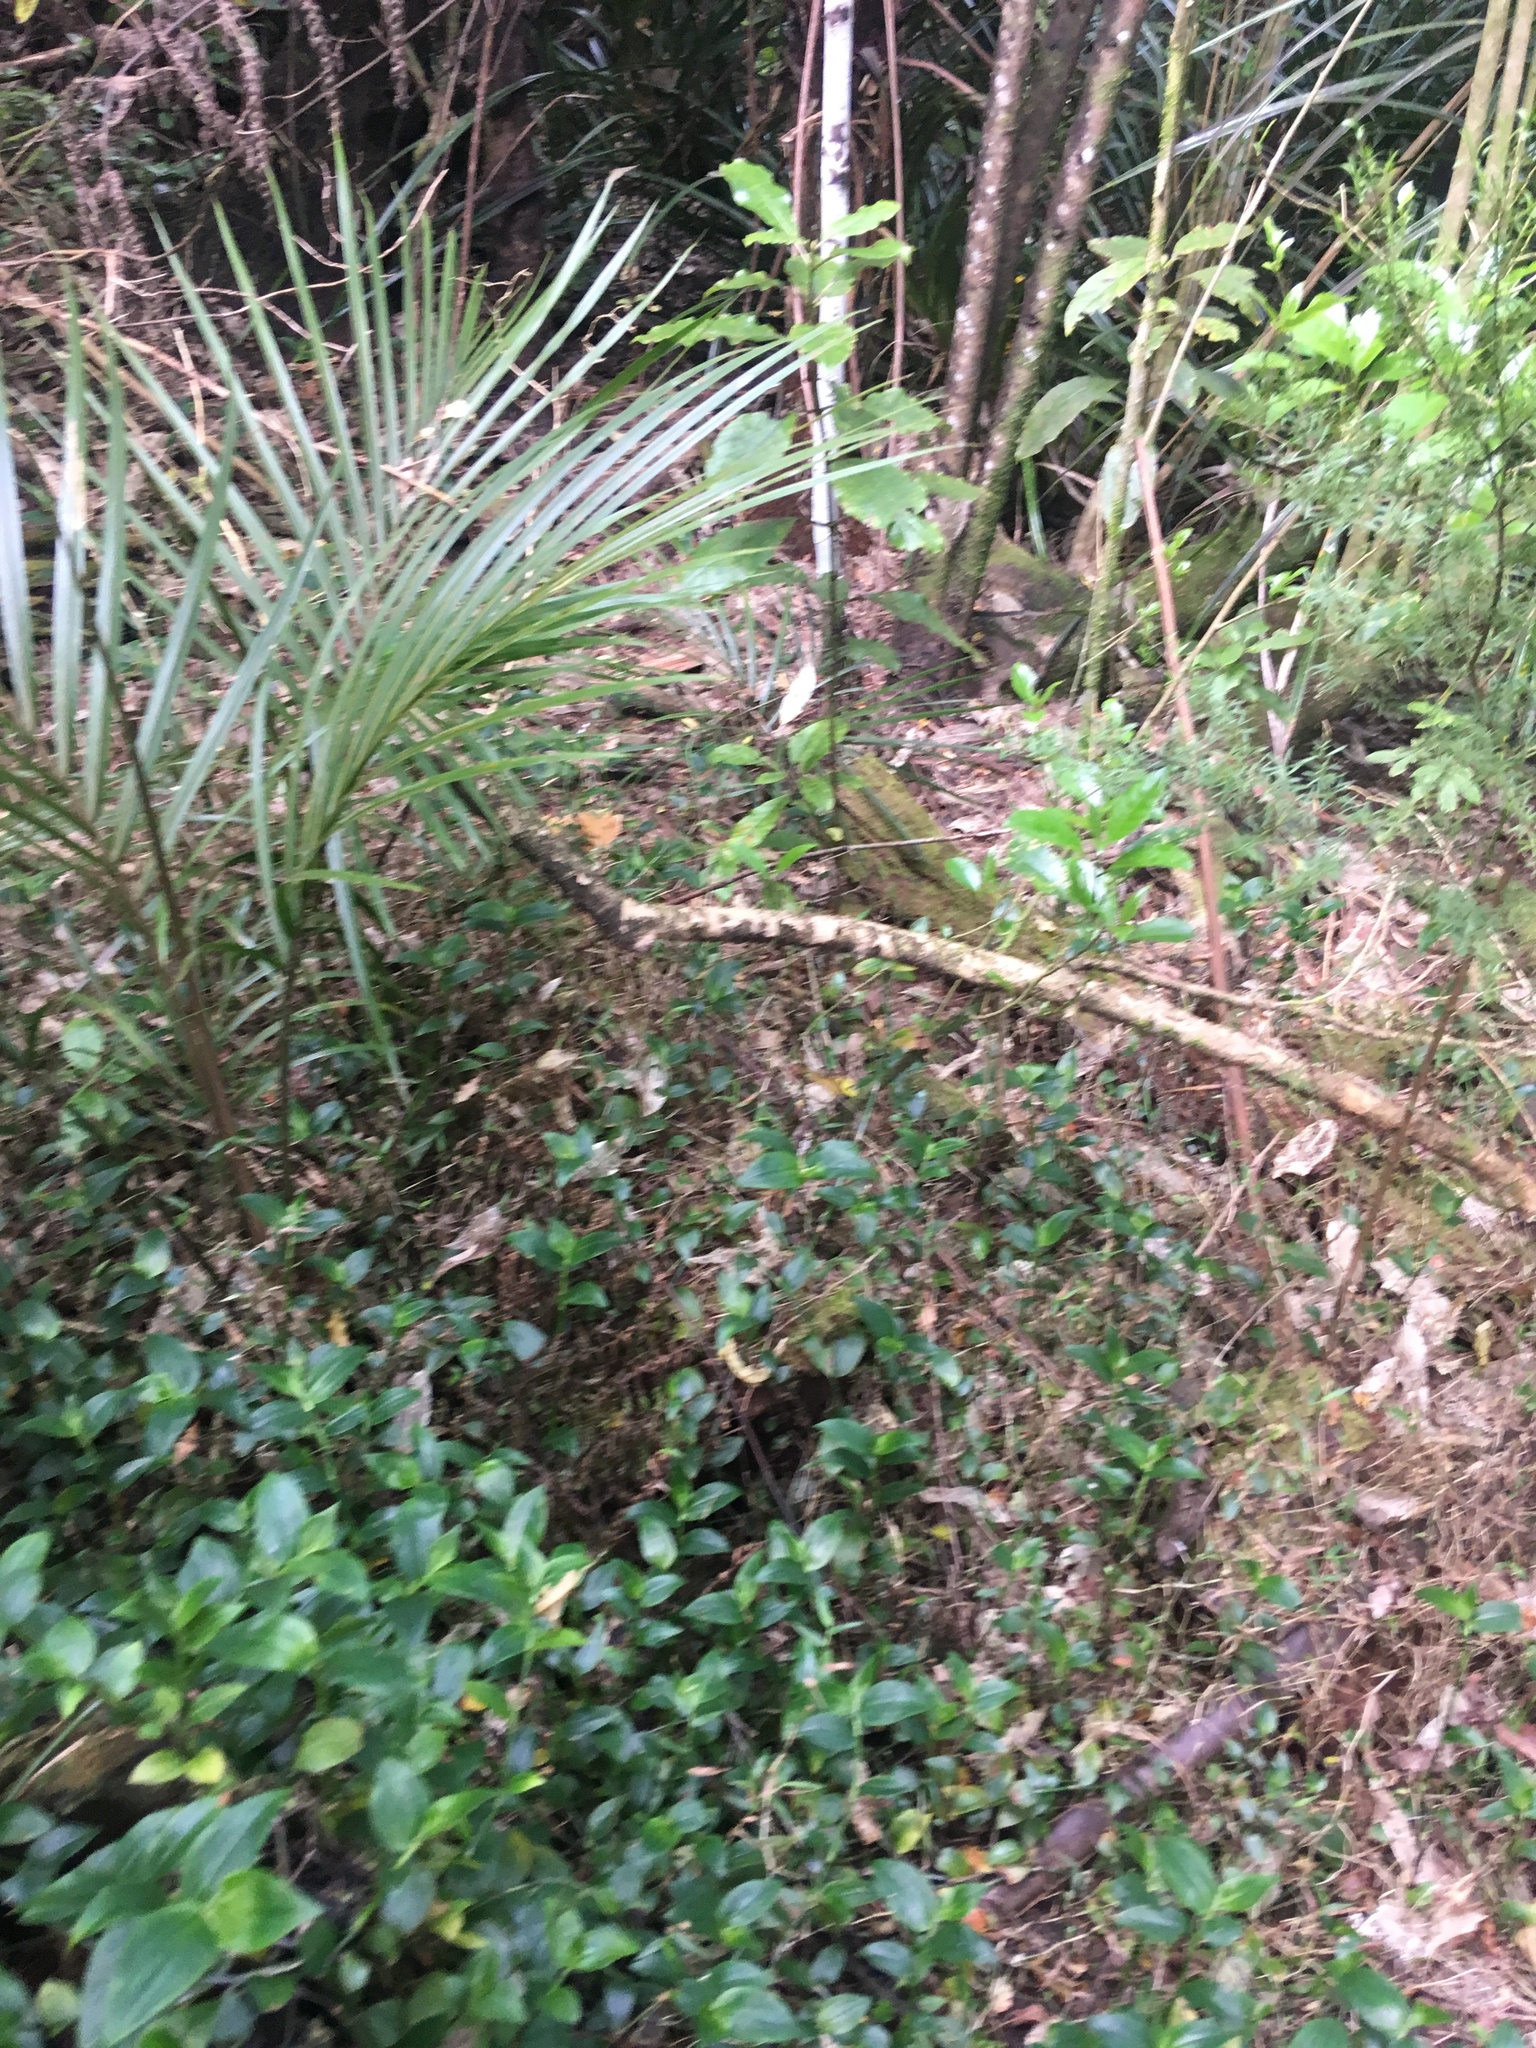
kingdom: Plantae
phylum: Tracheophyta
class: Liliopsida
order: Arecales
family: Arecaceae
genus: Rhopalostylis
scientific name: Rhopalostylis sapida
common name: Feather-duster palm
